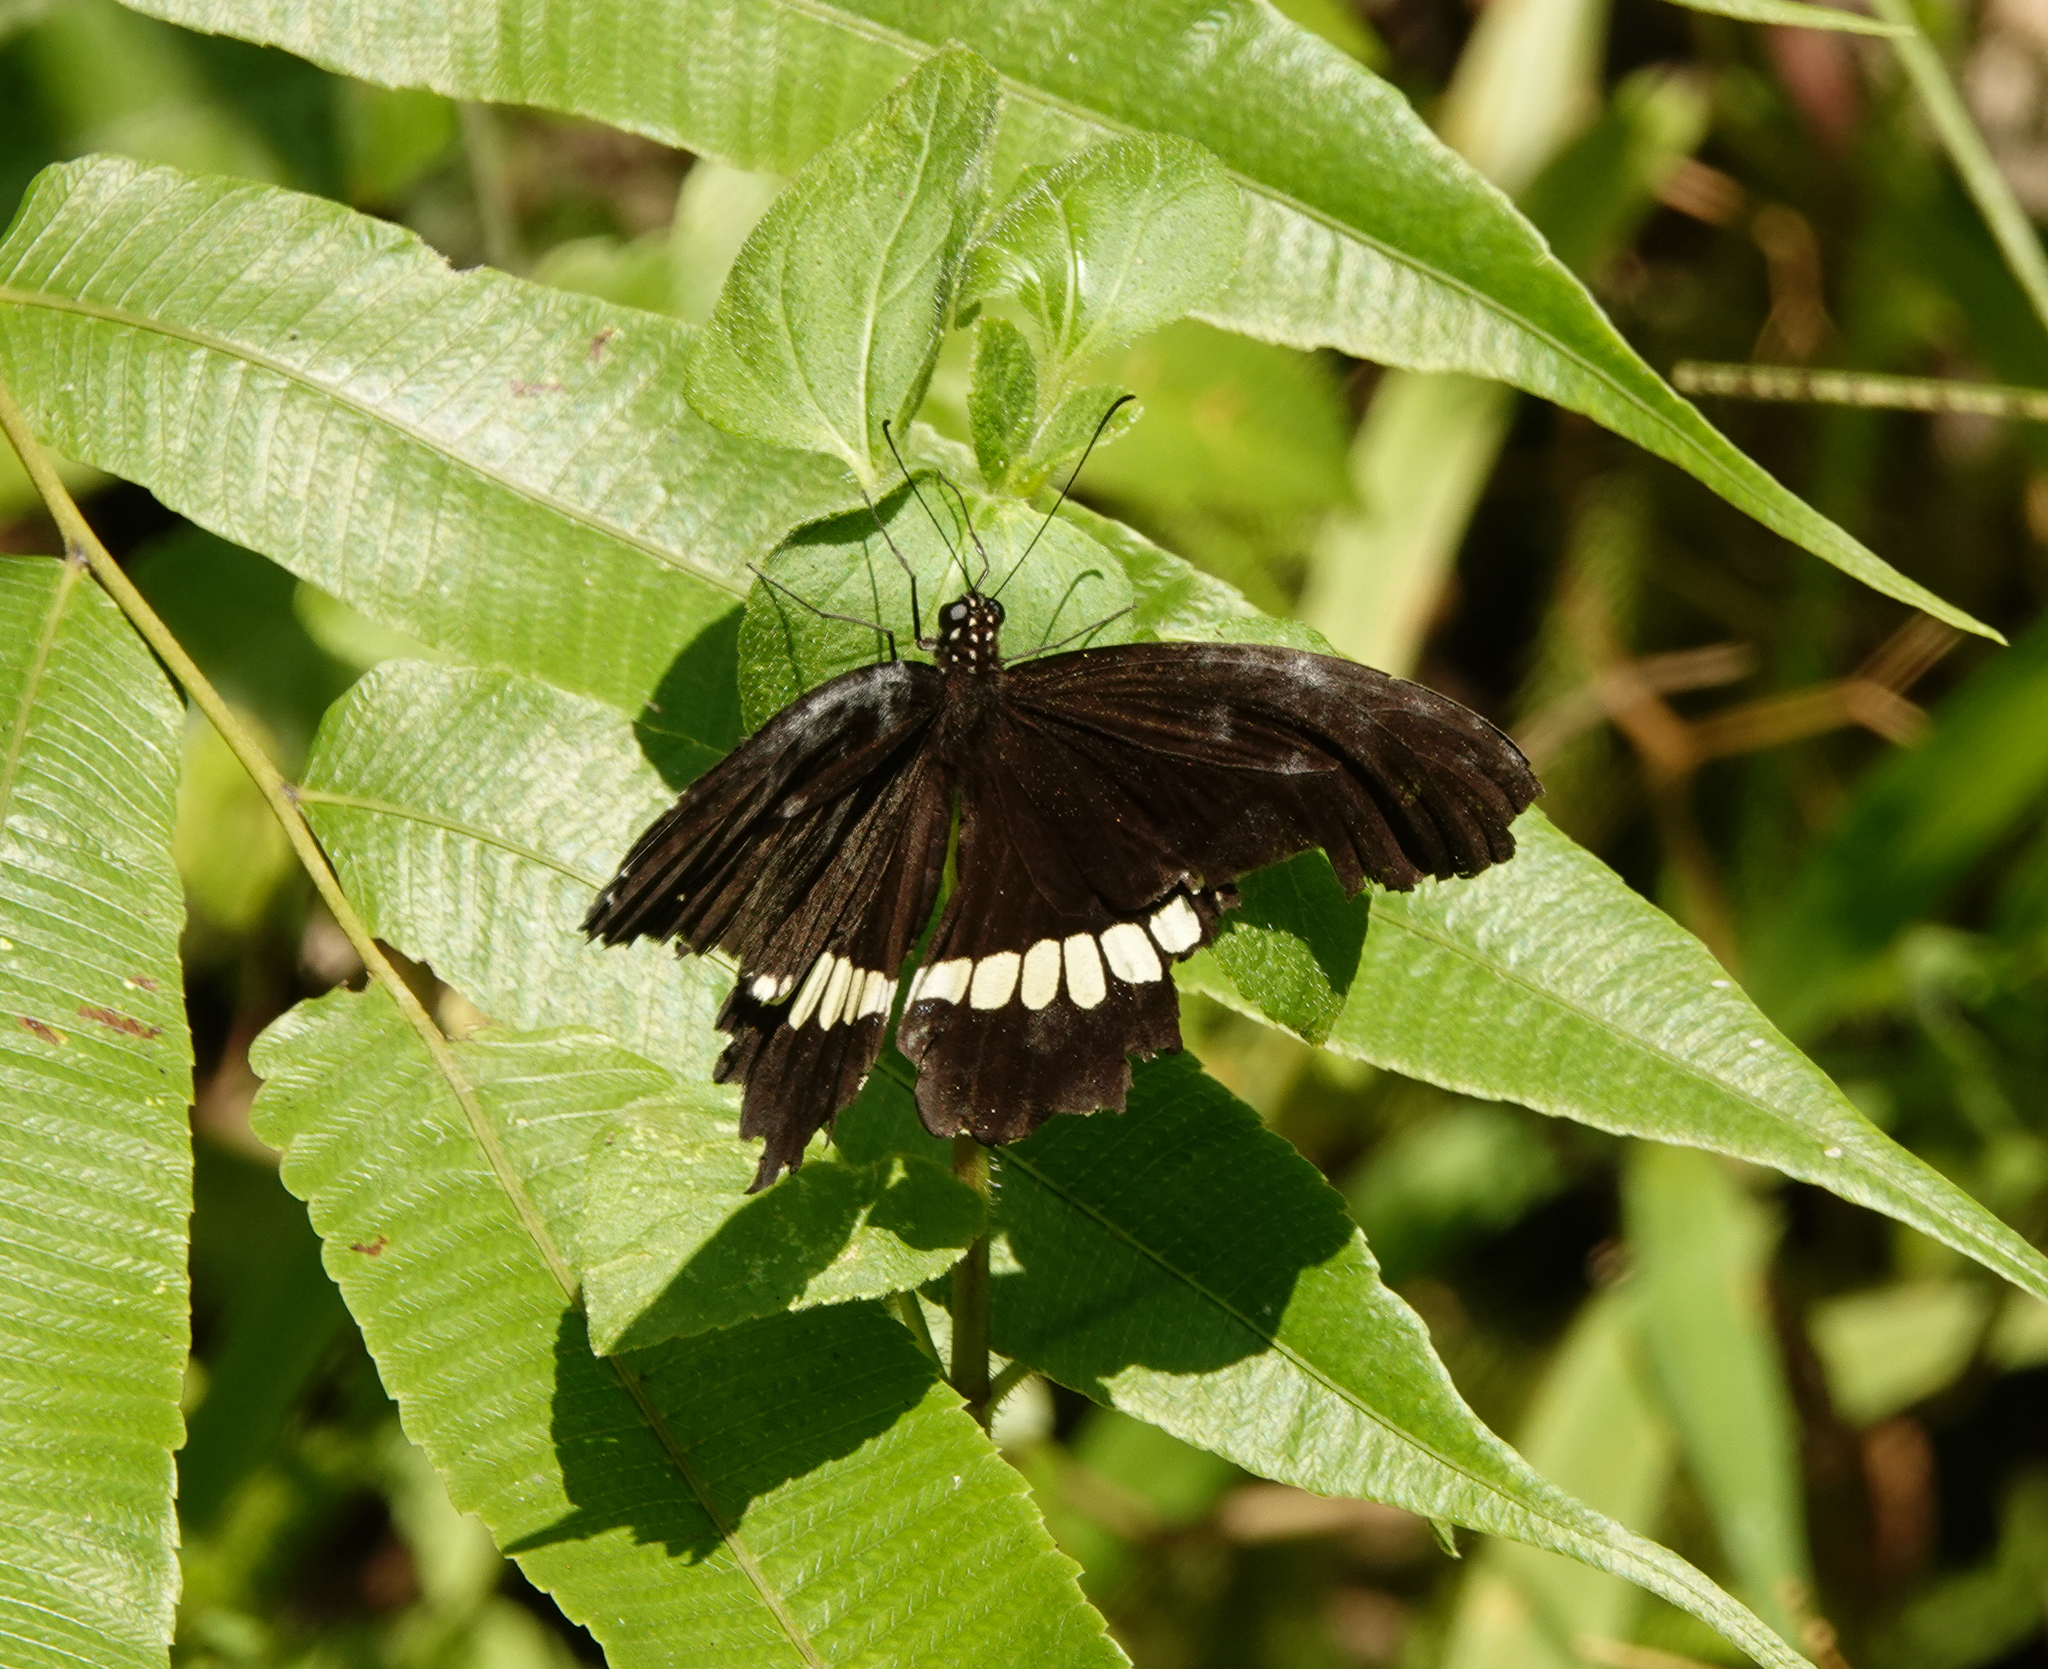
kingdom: Animalia
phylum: Arthropoda
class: Insecta
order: Lepidoptera
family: Papilionidae
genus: Papilio
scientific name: Papilio polytes
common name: Common mormon
